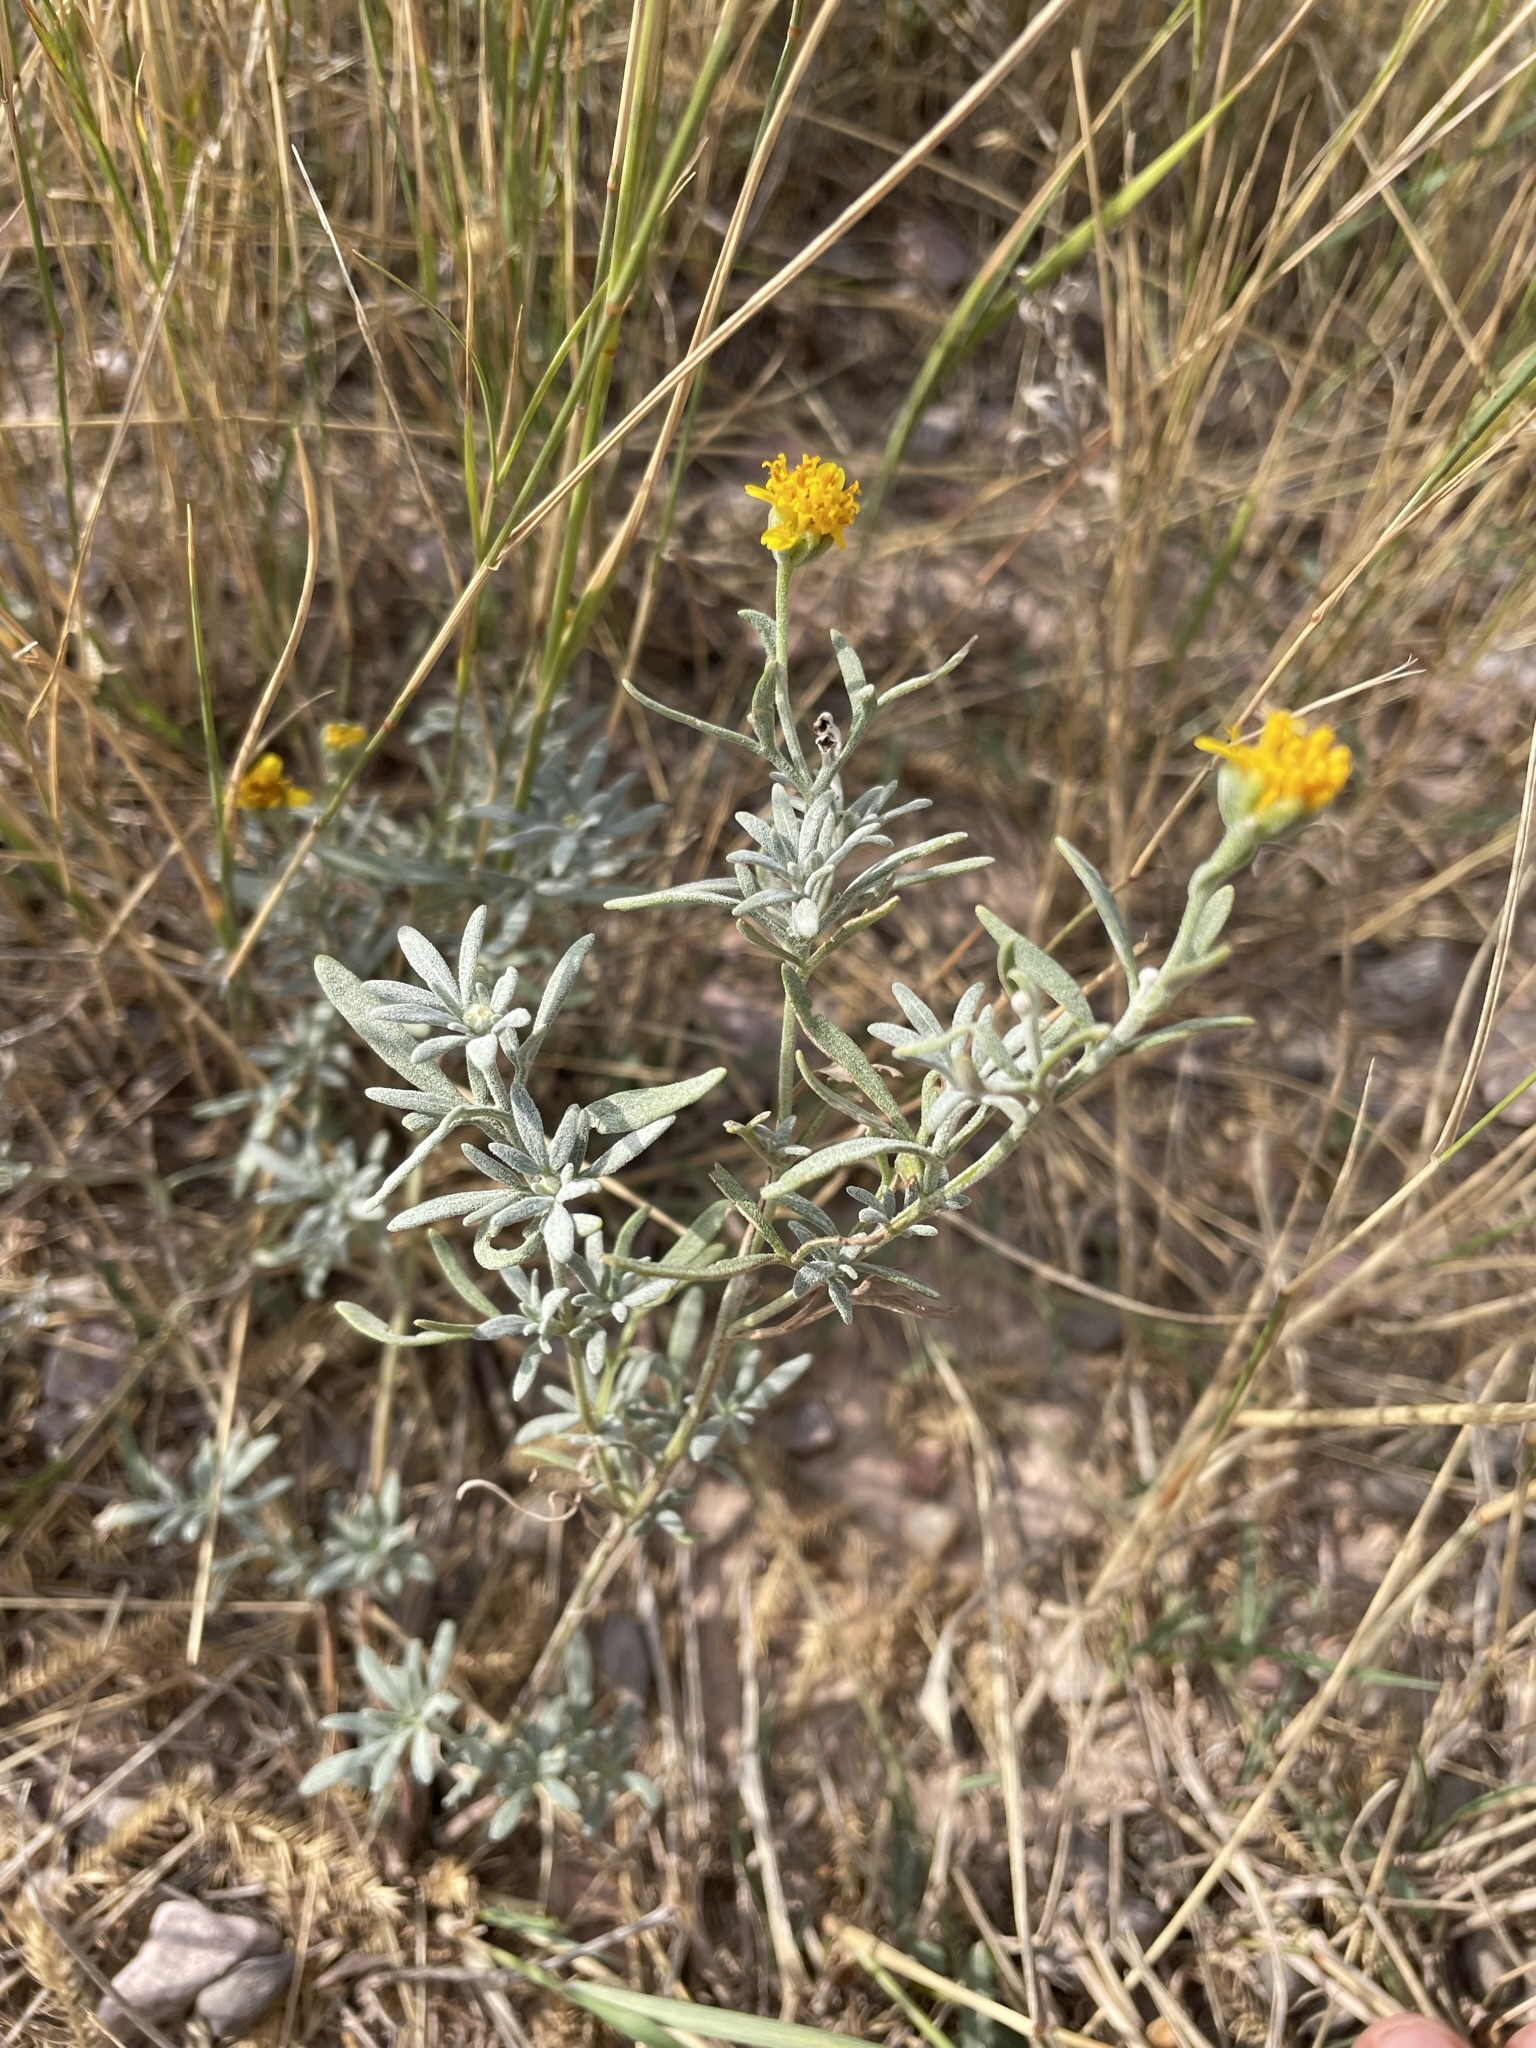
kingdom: Plantae
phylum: Tracheophyta
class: Magnoliopsida
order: Asterales
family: Asteraceae
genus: Picradeniopsis
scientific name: Picradeniopsis oppositifolia
